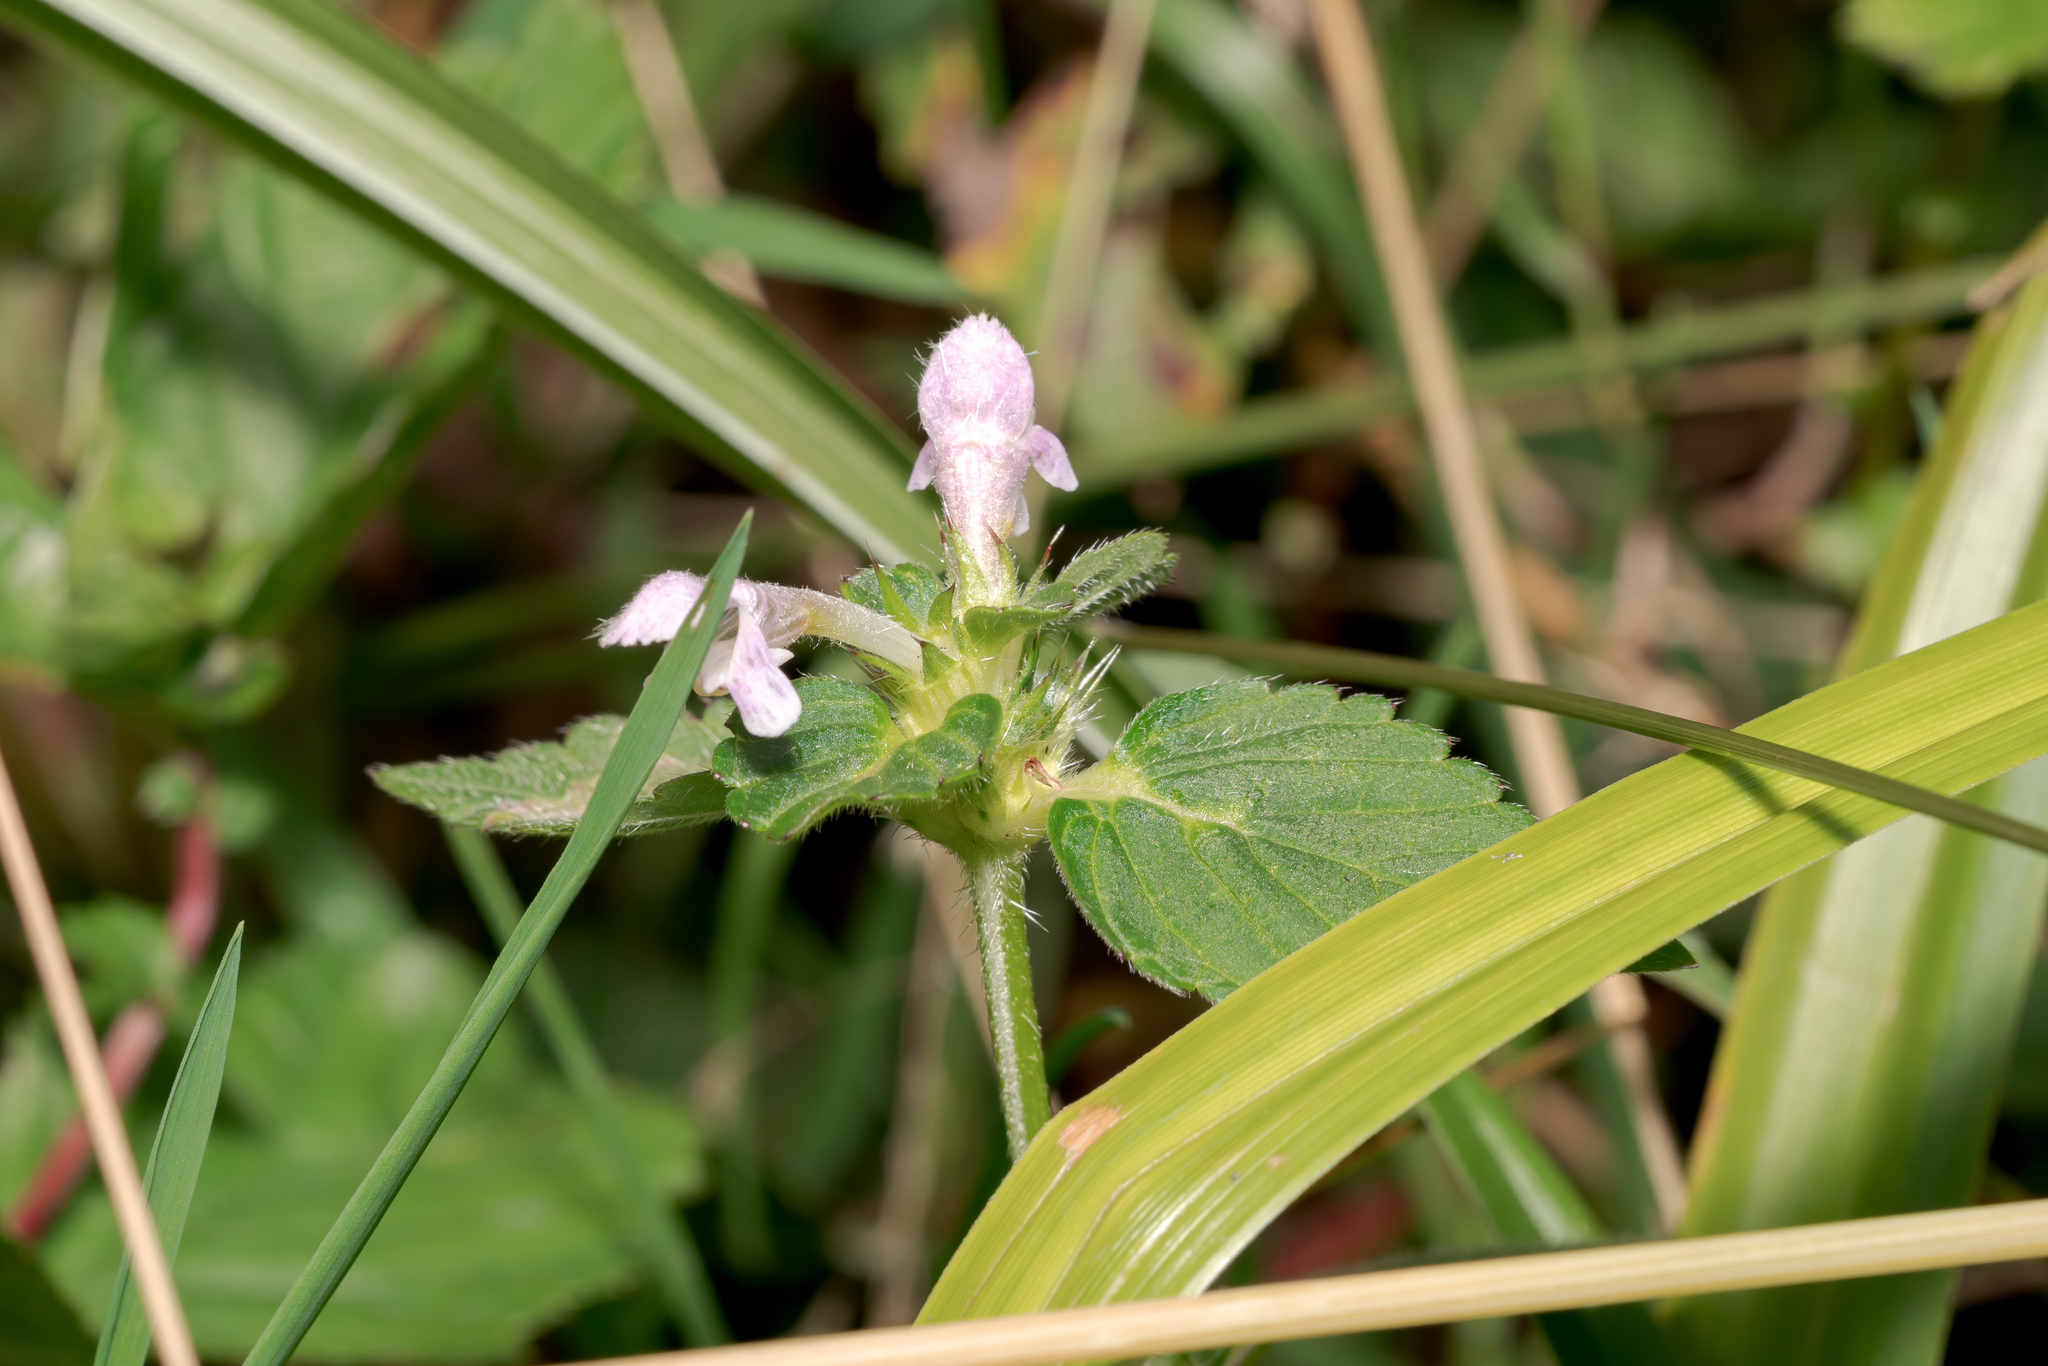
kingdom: Plantae
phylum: Tracheophyta
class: Magnoliopsida
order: Lamiales
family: Lamiaceae
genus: Galeopsis
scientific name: Galeopsis tetrahit
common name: Common hemp-nettle
